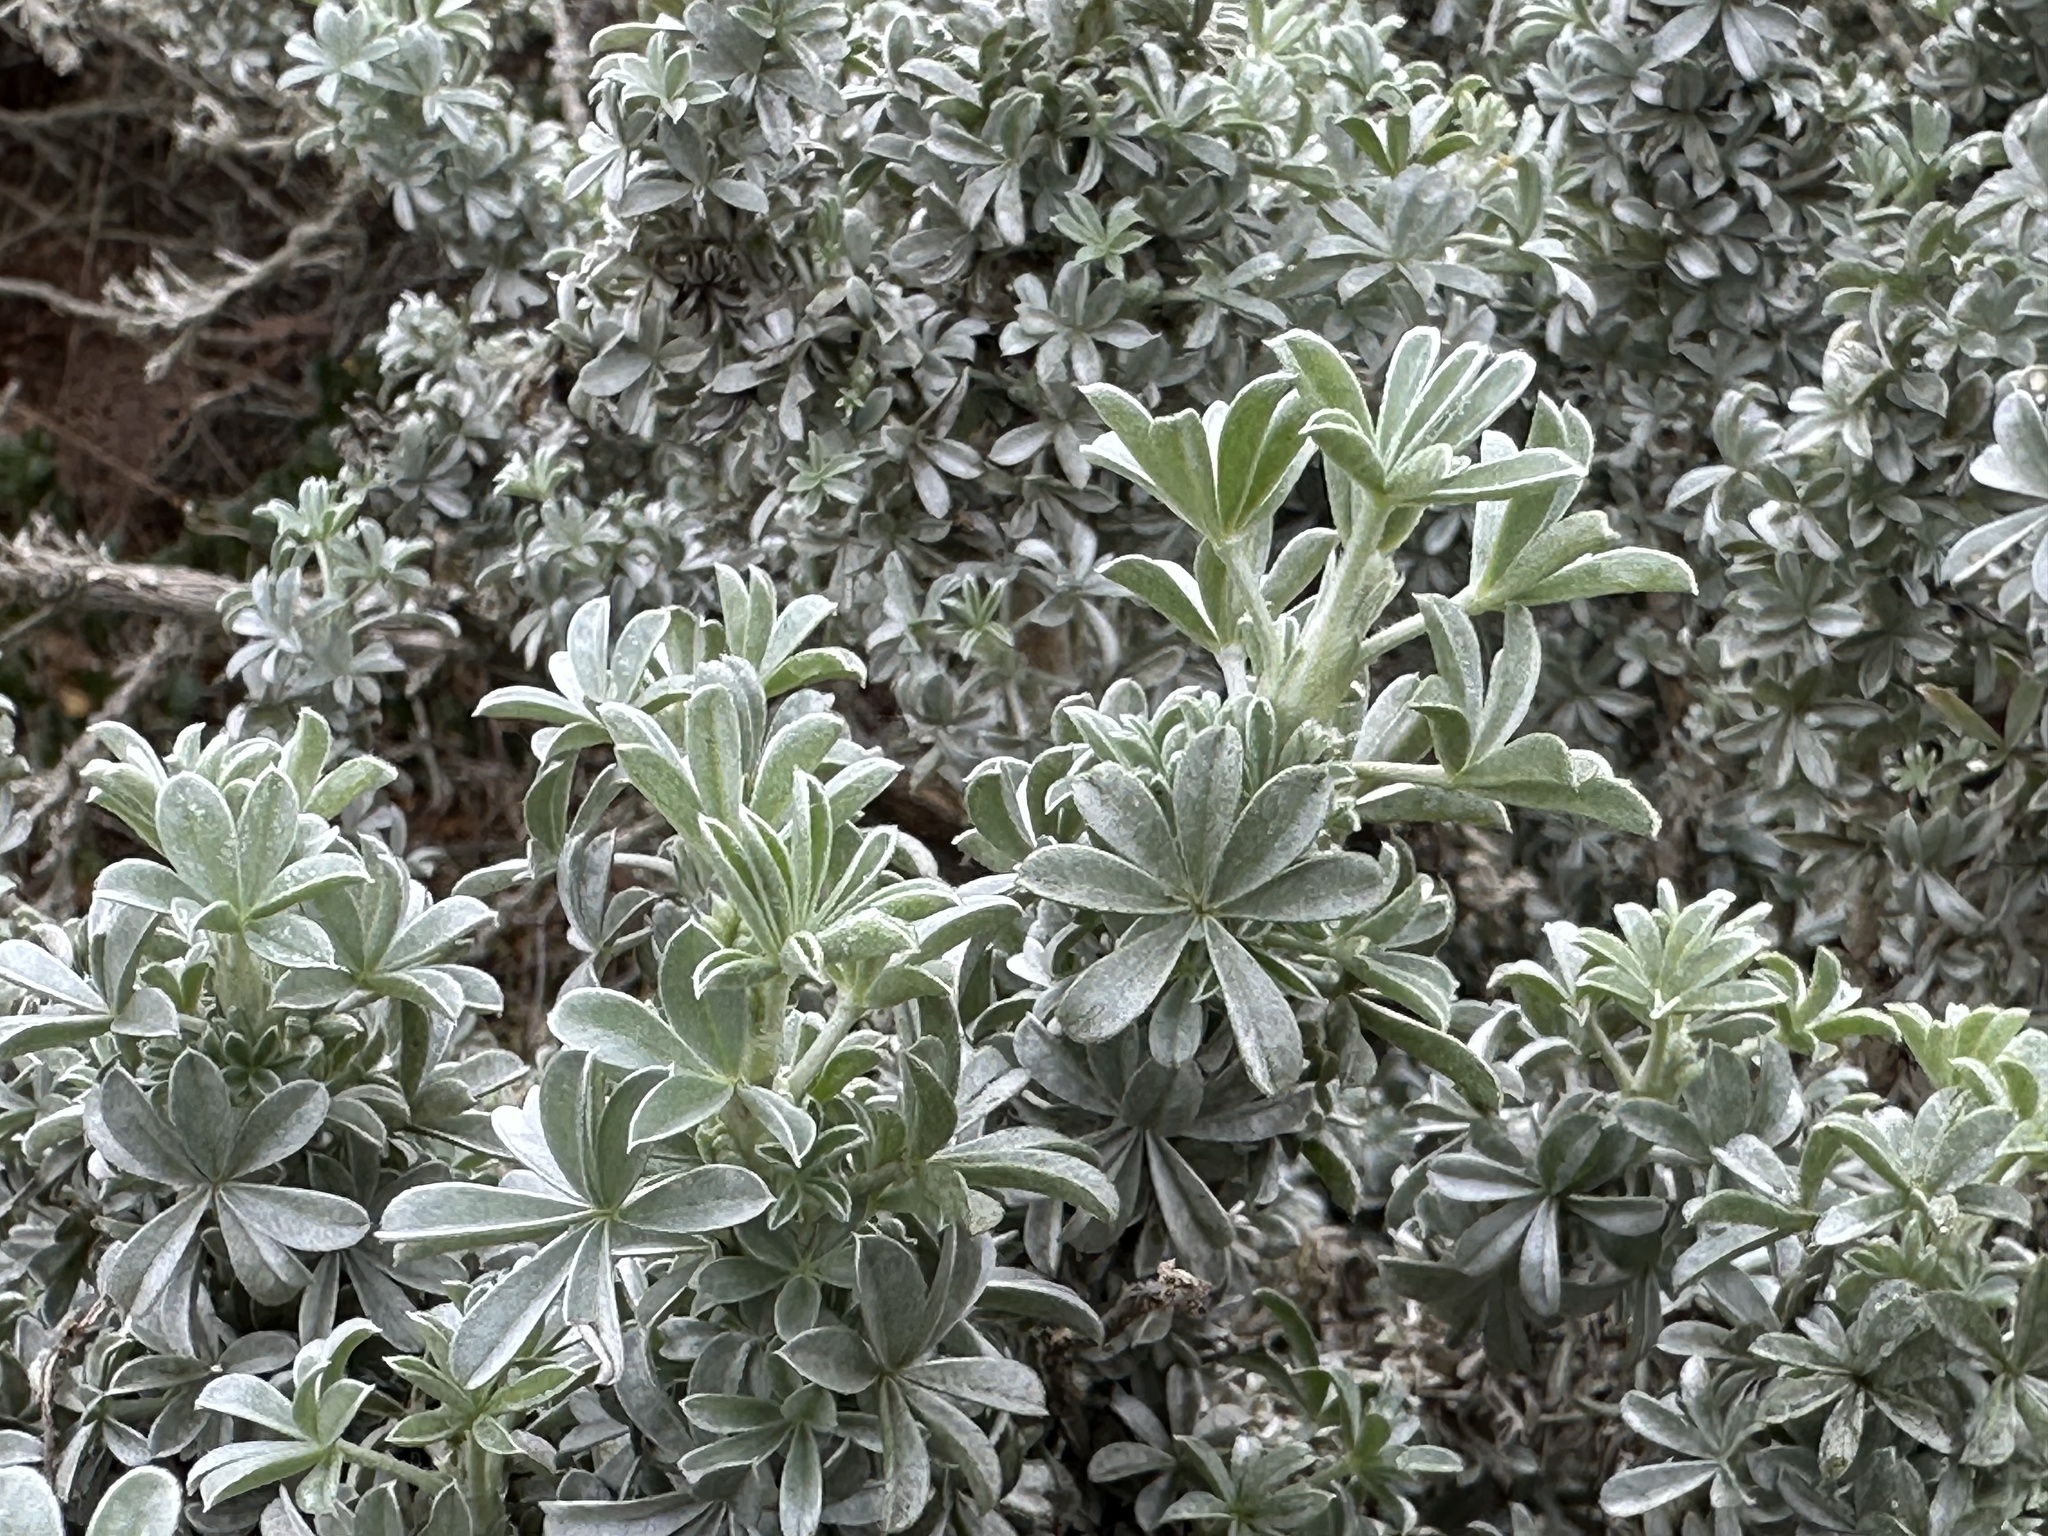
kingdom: Plantae
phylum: Tracheophyta
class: Magnoliopsida
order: Fabales
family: Fabaceae
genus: Lupinus
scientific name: Lupinus chamissonis
